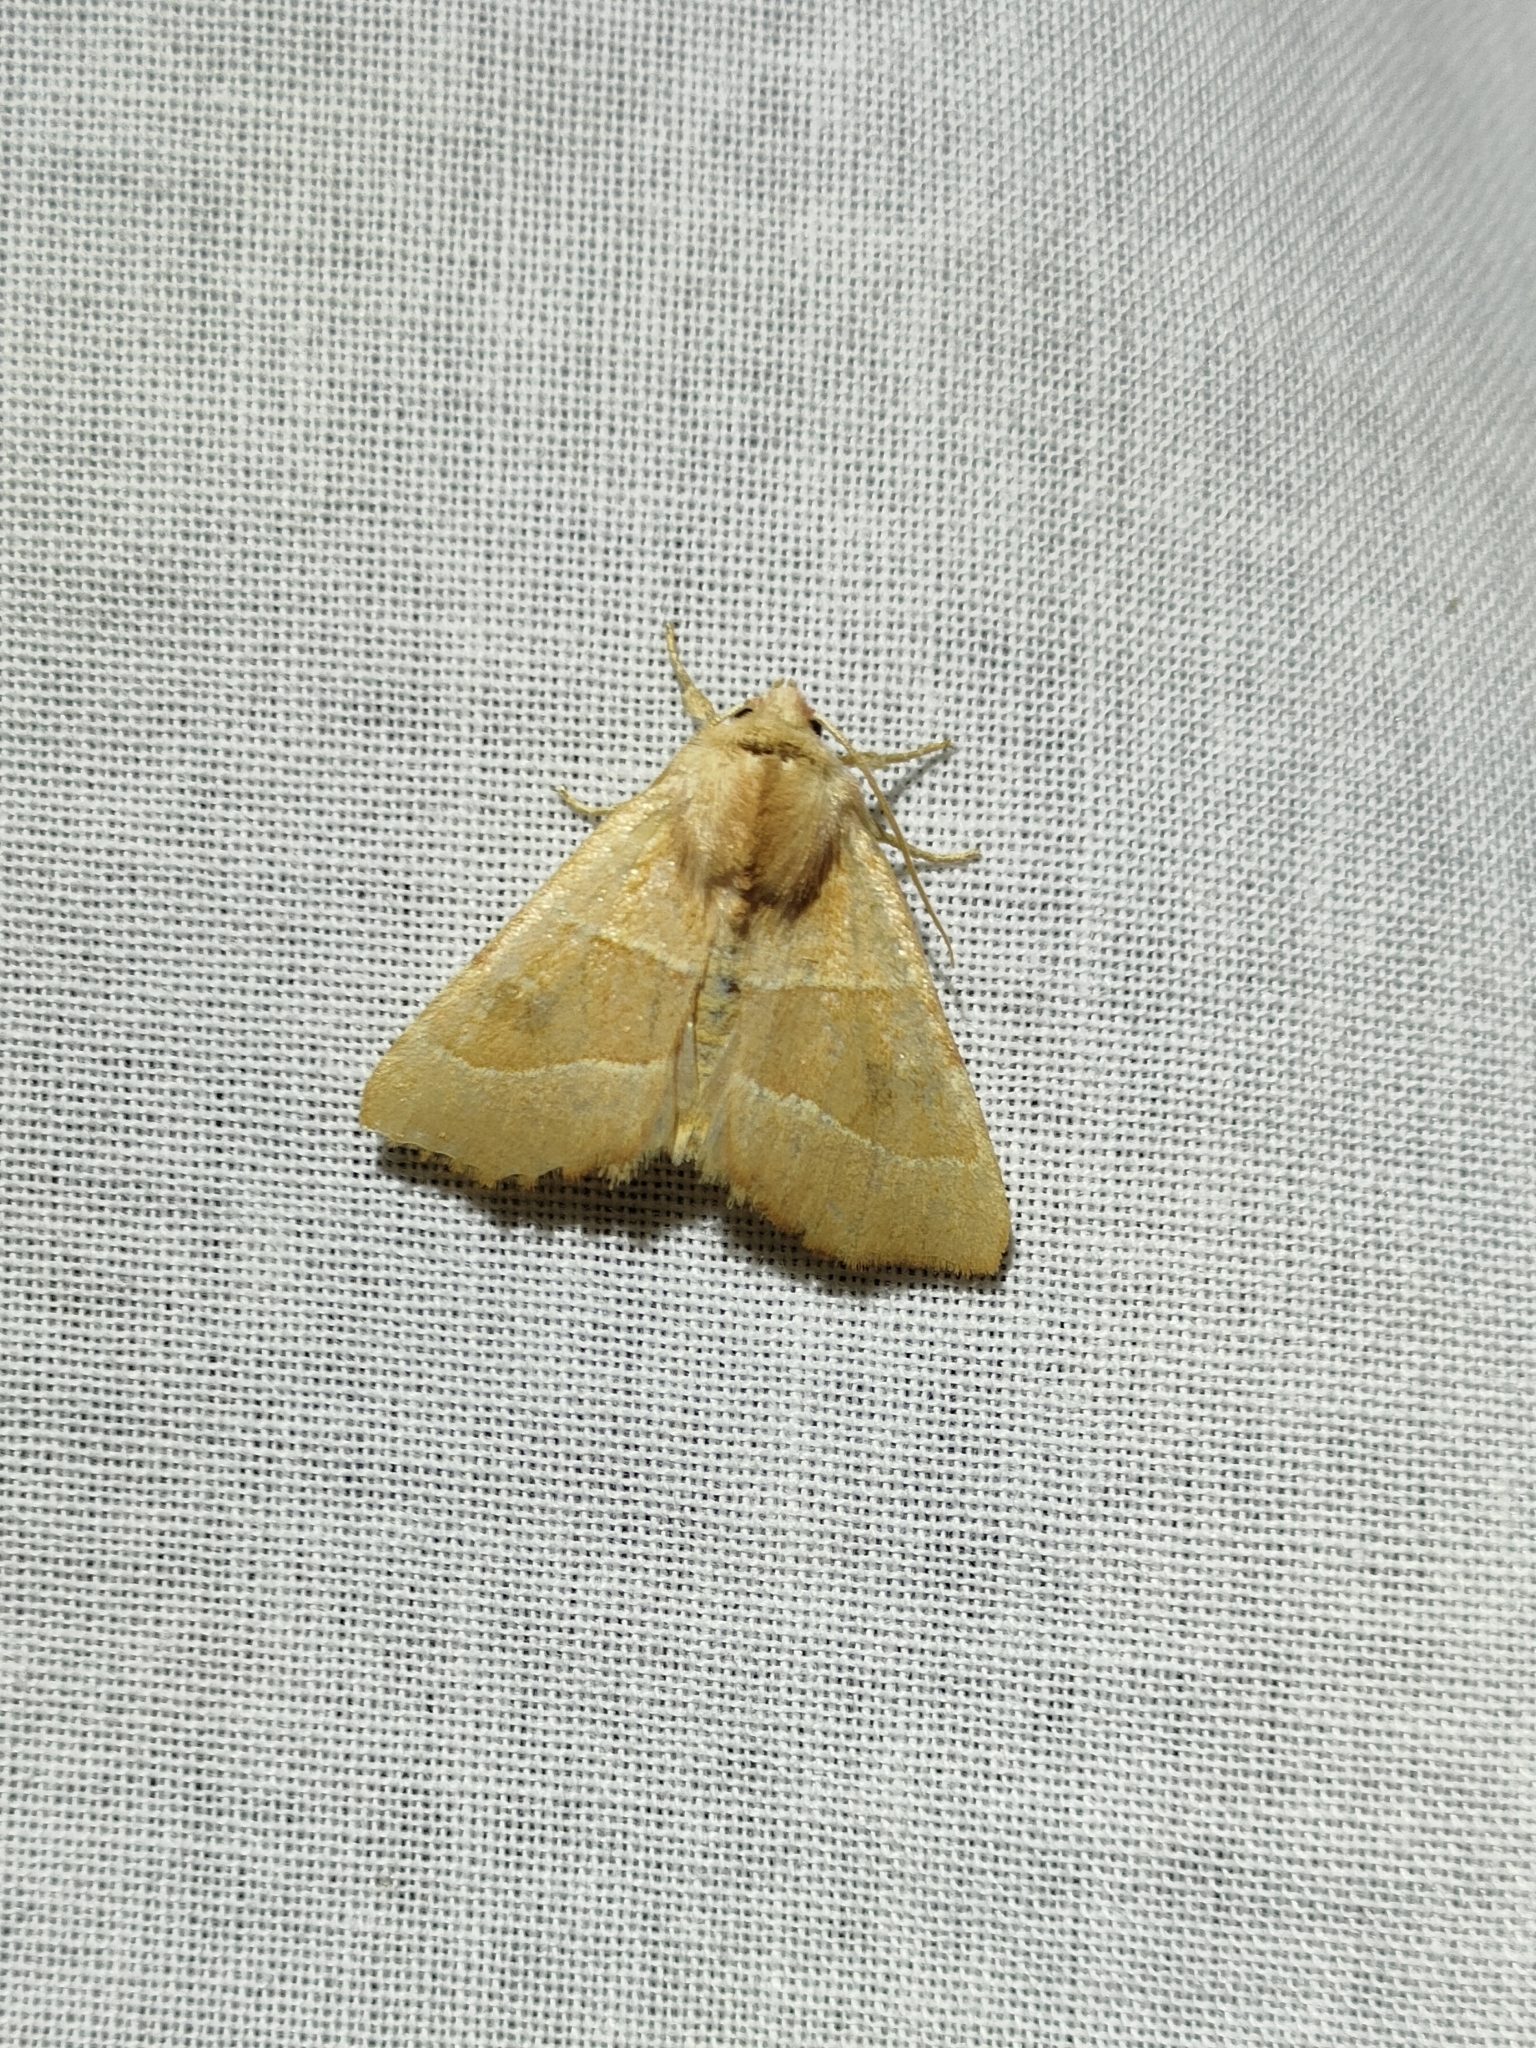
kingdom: Animalia
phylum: Arthropoda
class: Insecta
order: Lepidoptera
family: Noctuidae
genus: Atethmia
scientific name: Atethmia centrago
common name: Centre-barred sallow
